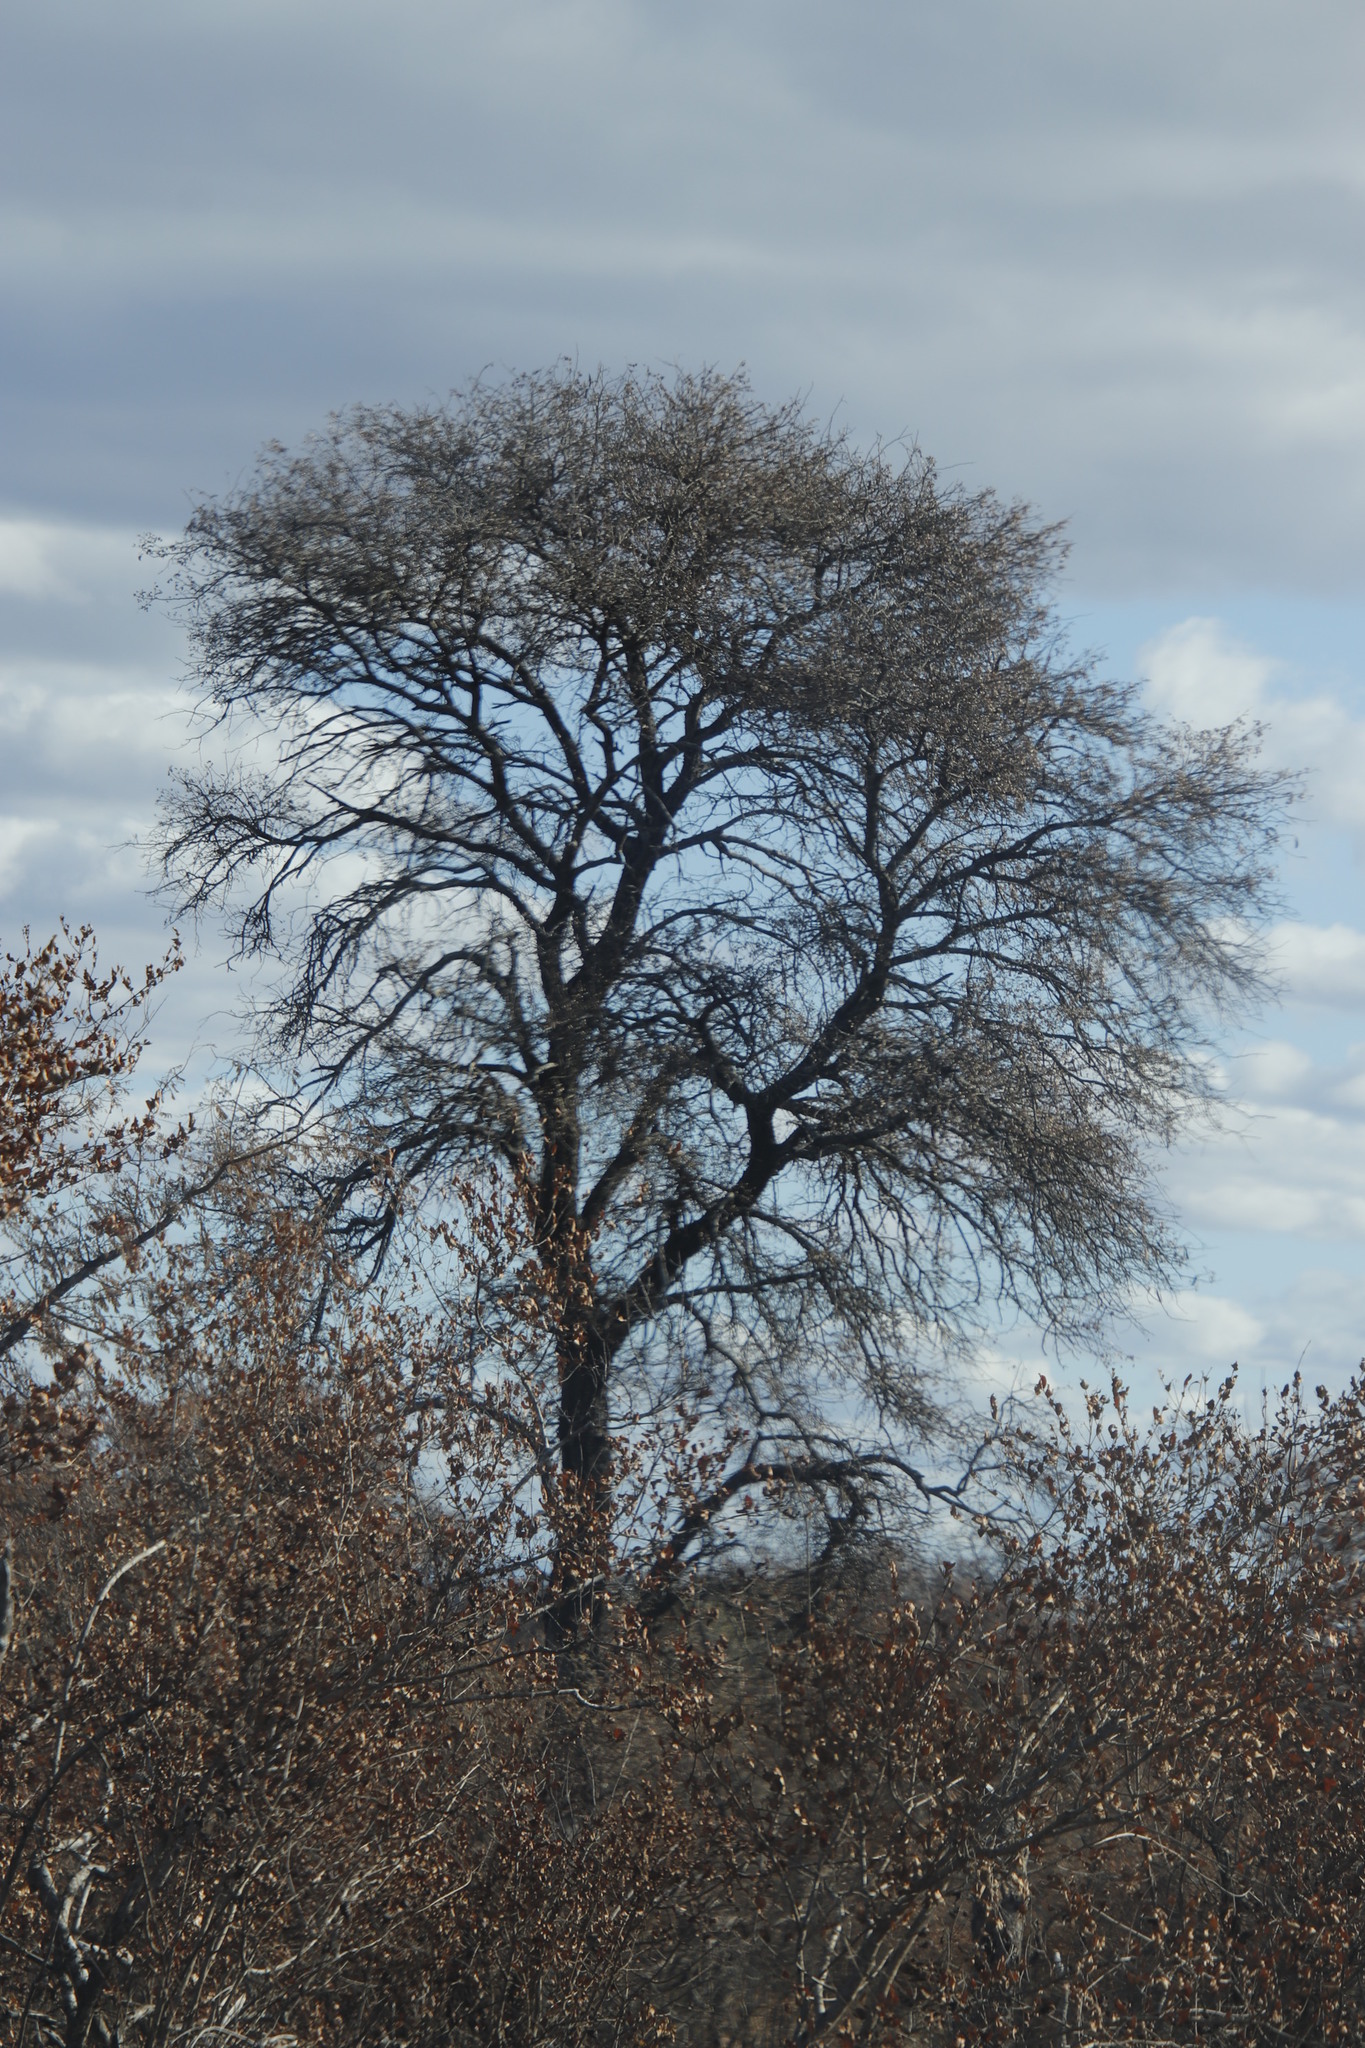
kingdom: Plantae
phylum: Tracheophyta
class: Magnoliopsida
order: Fabales
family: Fabaceae
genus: Senegalia
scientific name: Senegalia nigrescens
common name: Knobthorn
